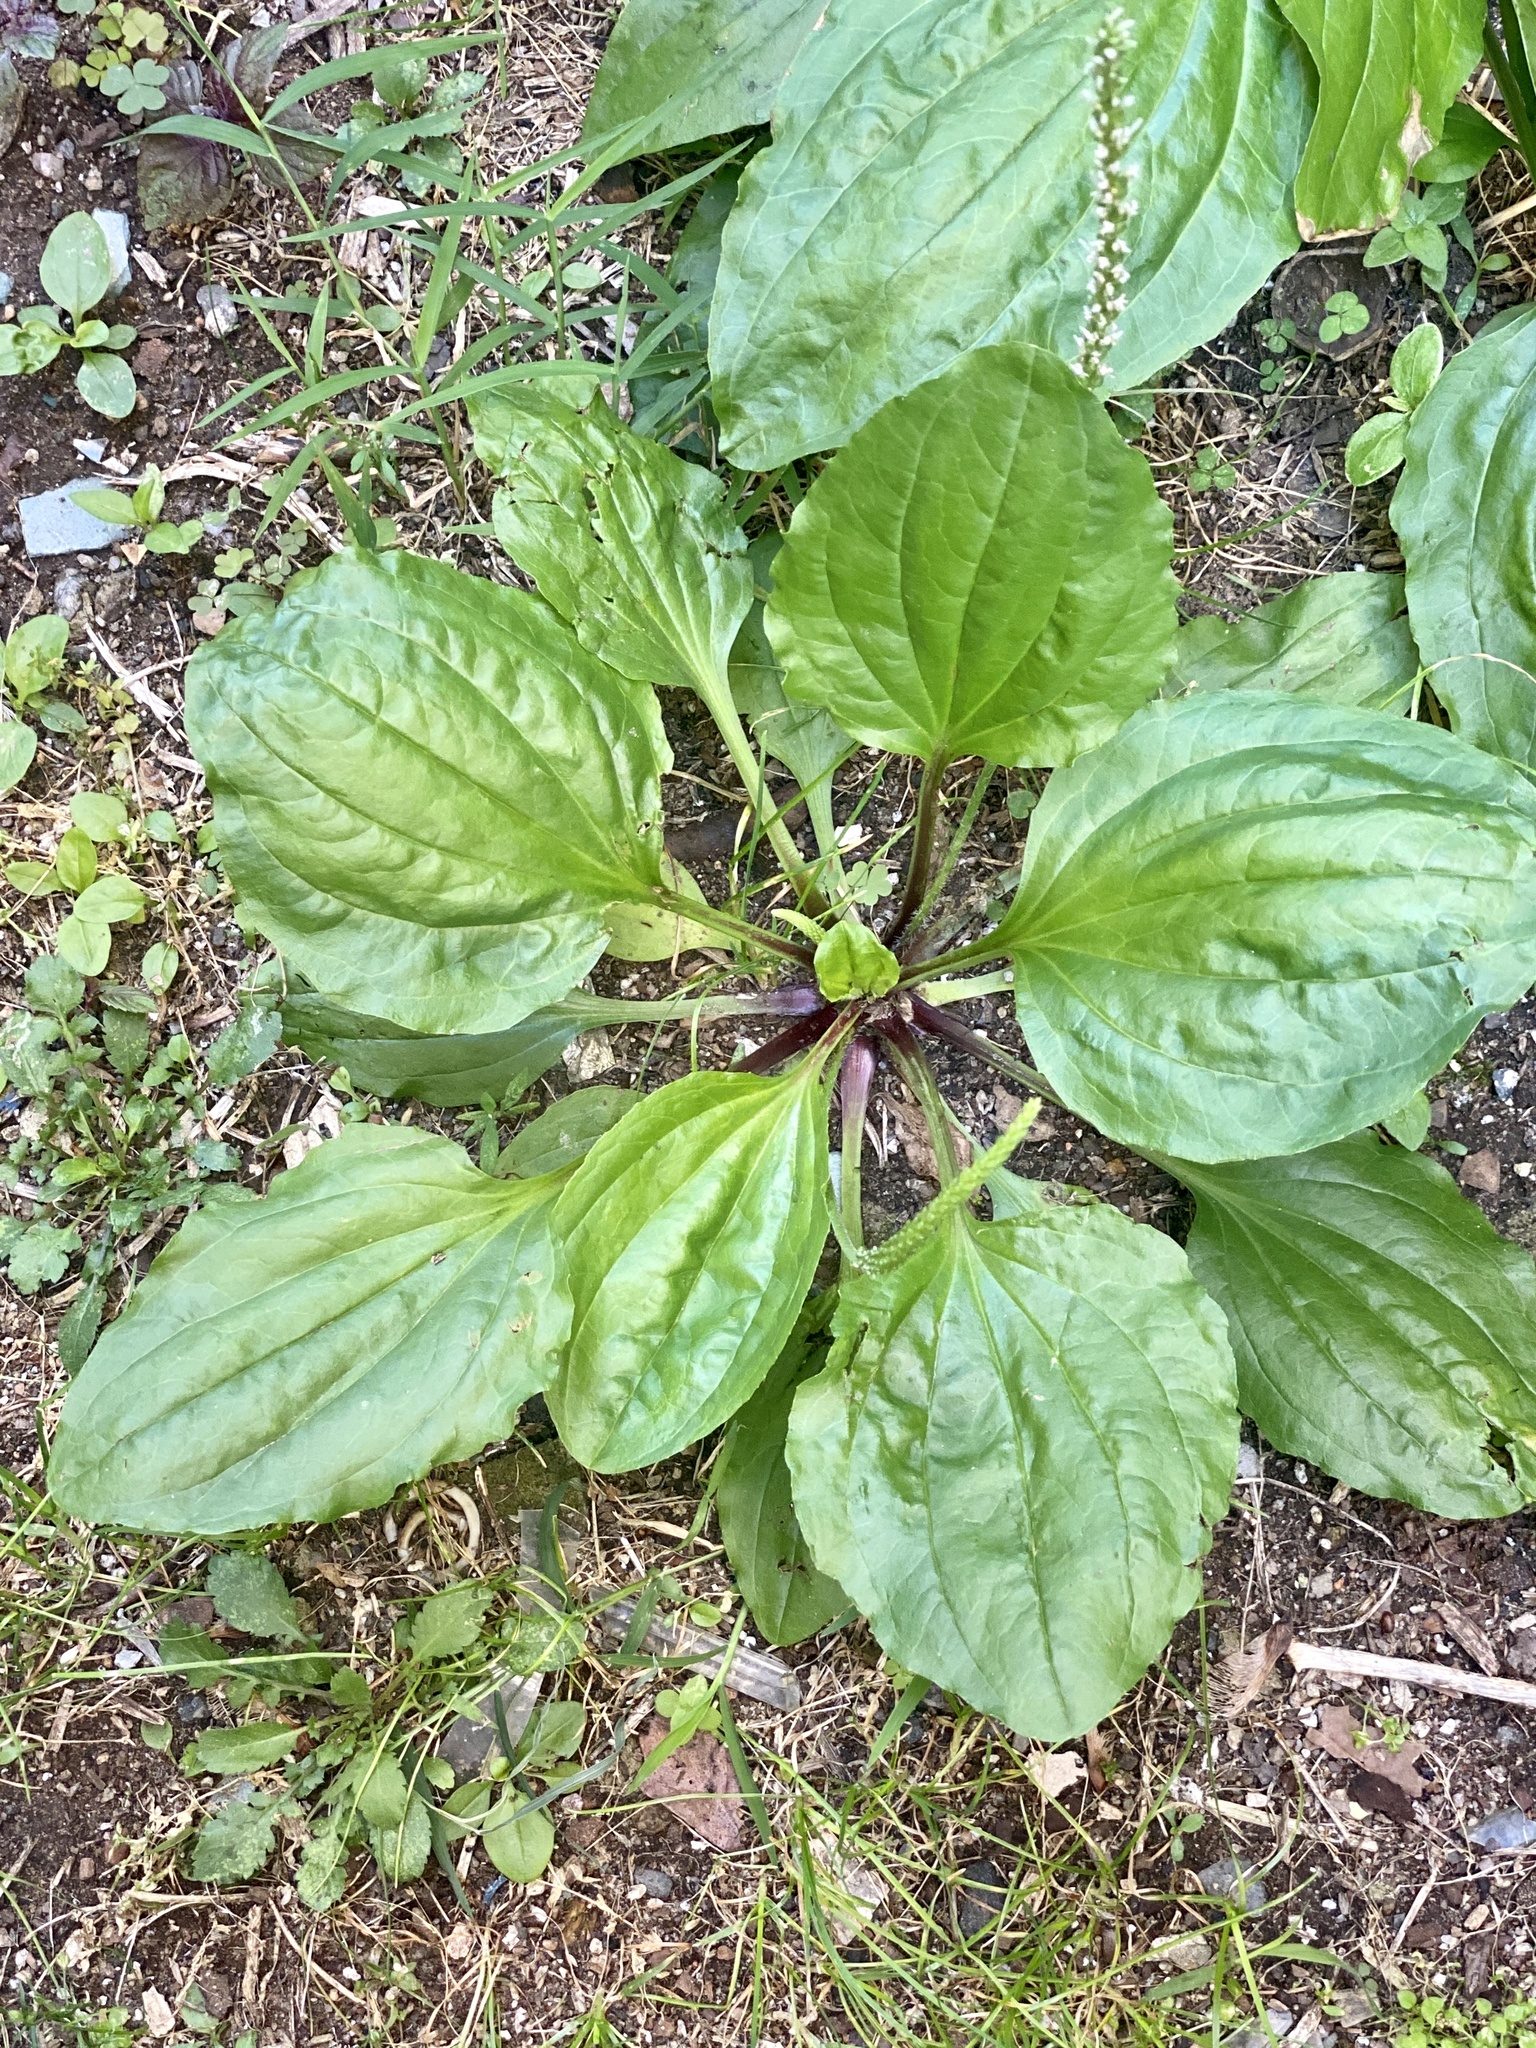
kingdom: Plantae
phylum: Tracheophyta
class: Magnoliopsida
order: Lamiales
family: Plantaginaceae
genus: Plantago
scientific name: Plantago rugelii
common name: American plantain
